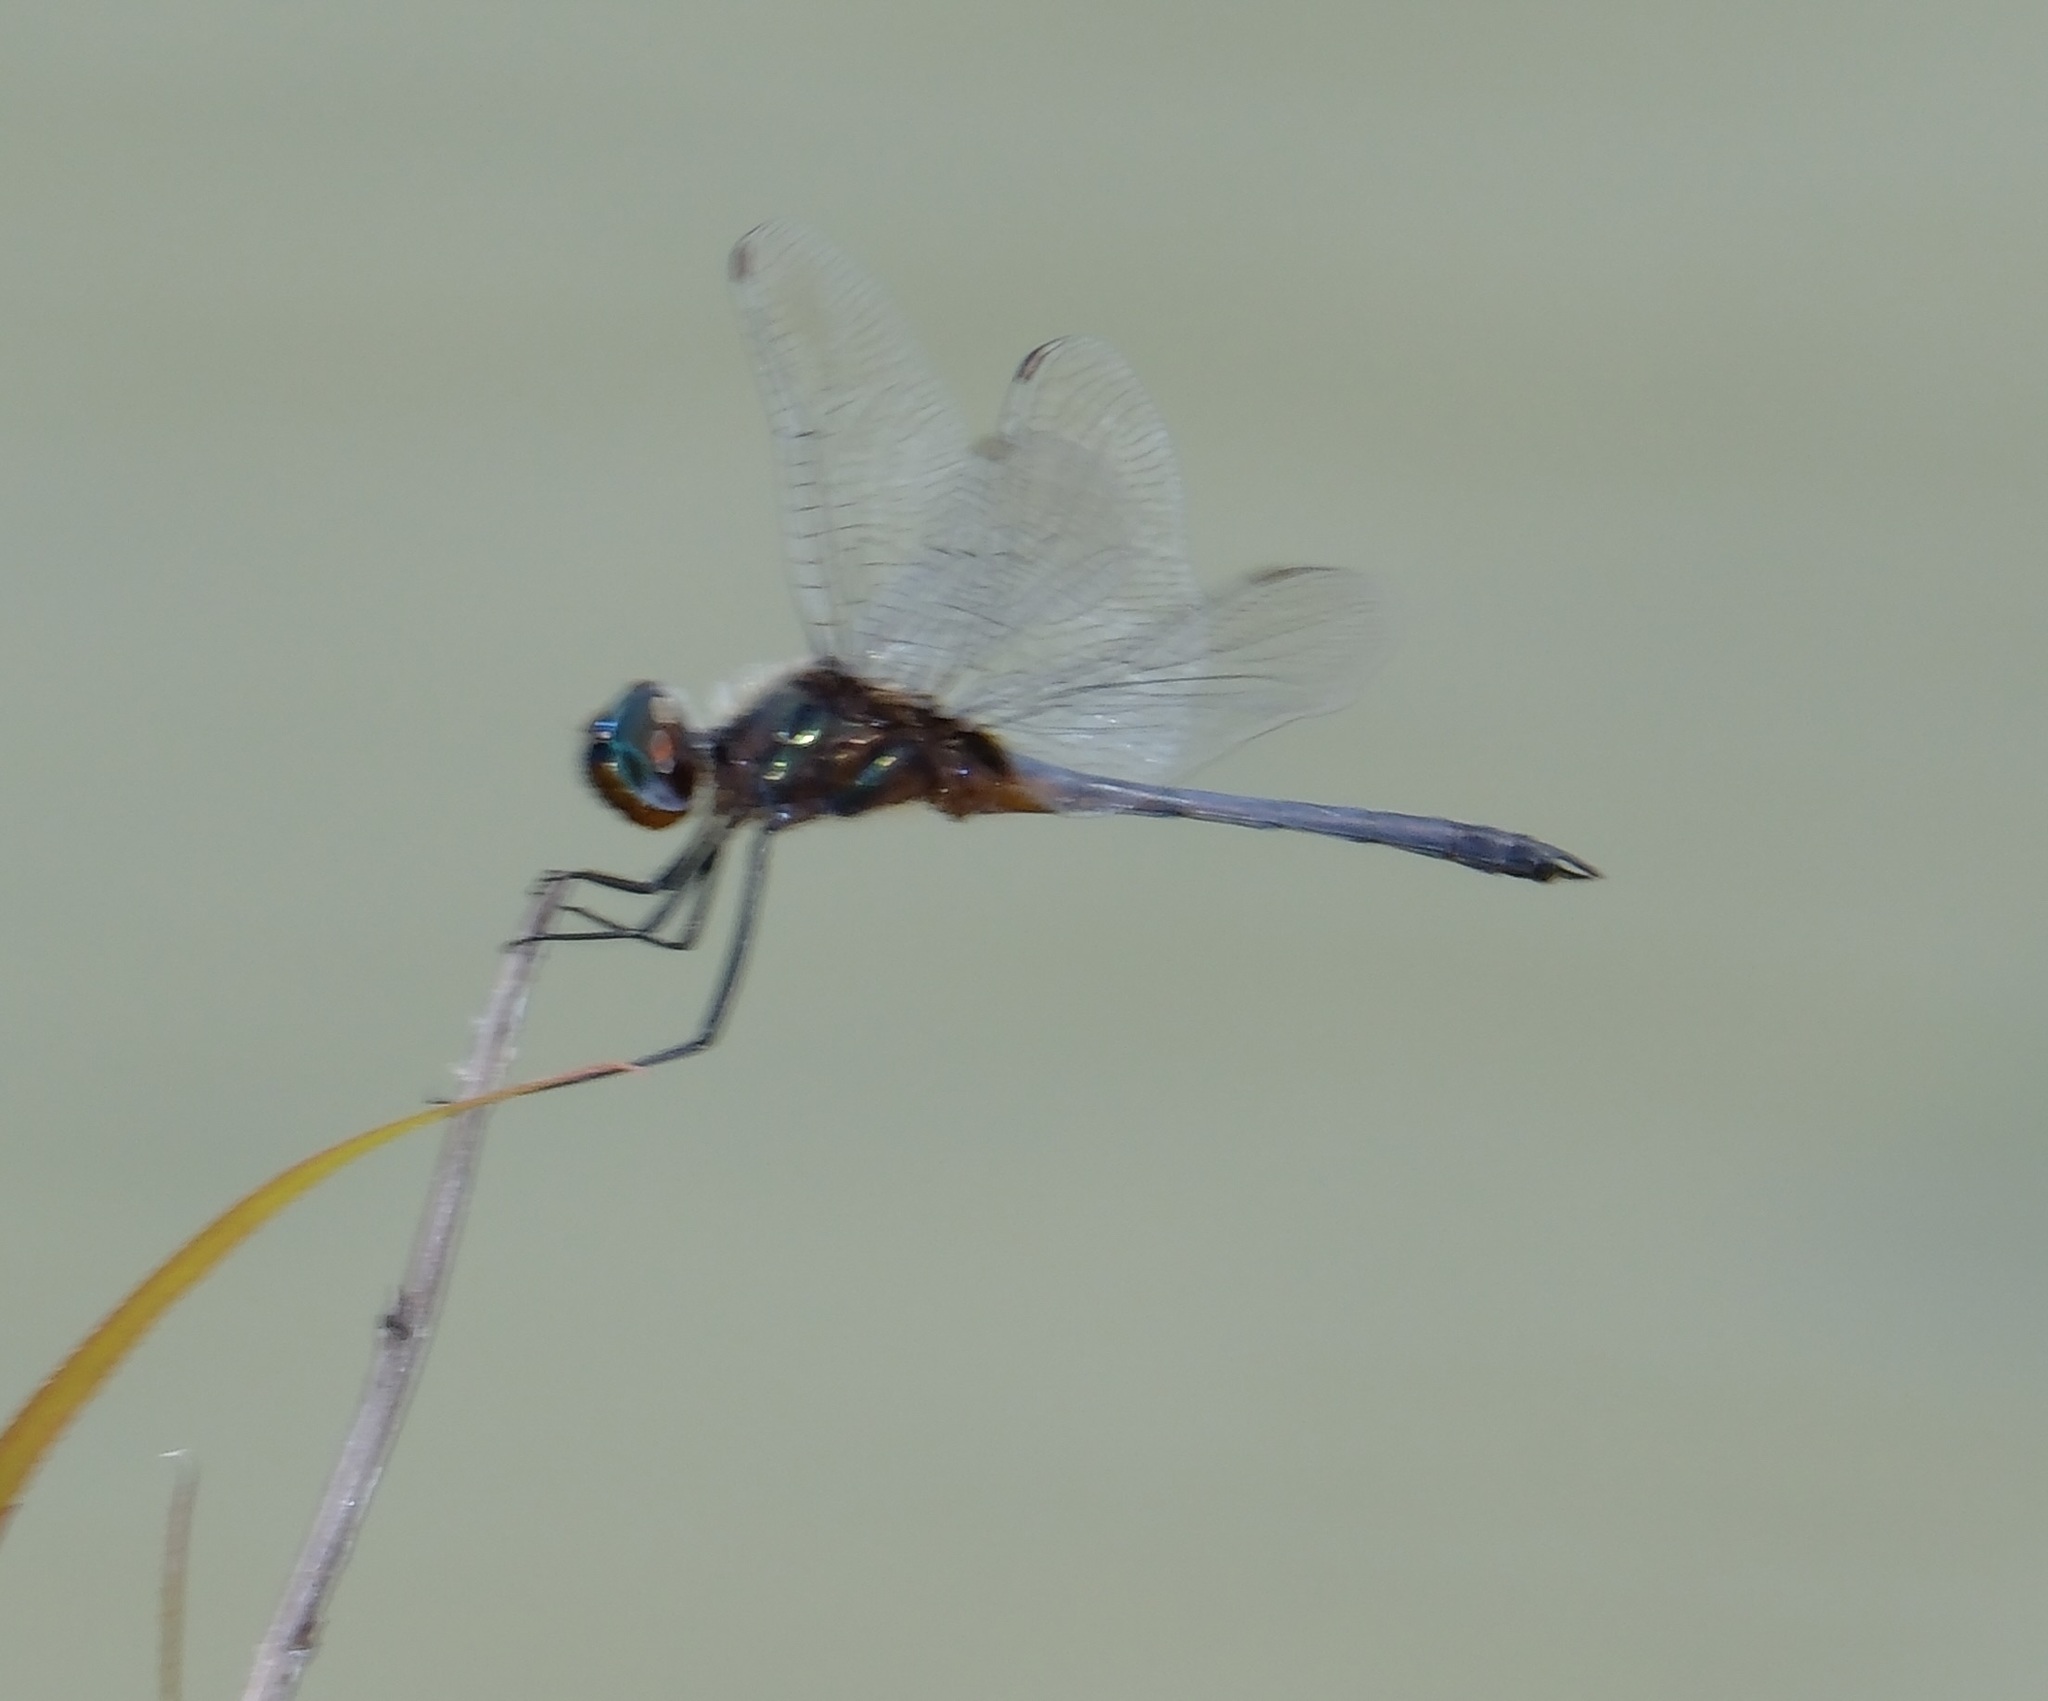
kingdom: Animalia
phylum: Arthropoda
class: Insecta
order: Odonata
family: Libellulidae
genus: Idiataphe
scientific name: Idiataphe cubensis
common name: Metallic pennant
